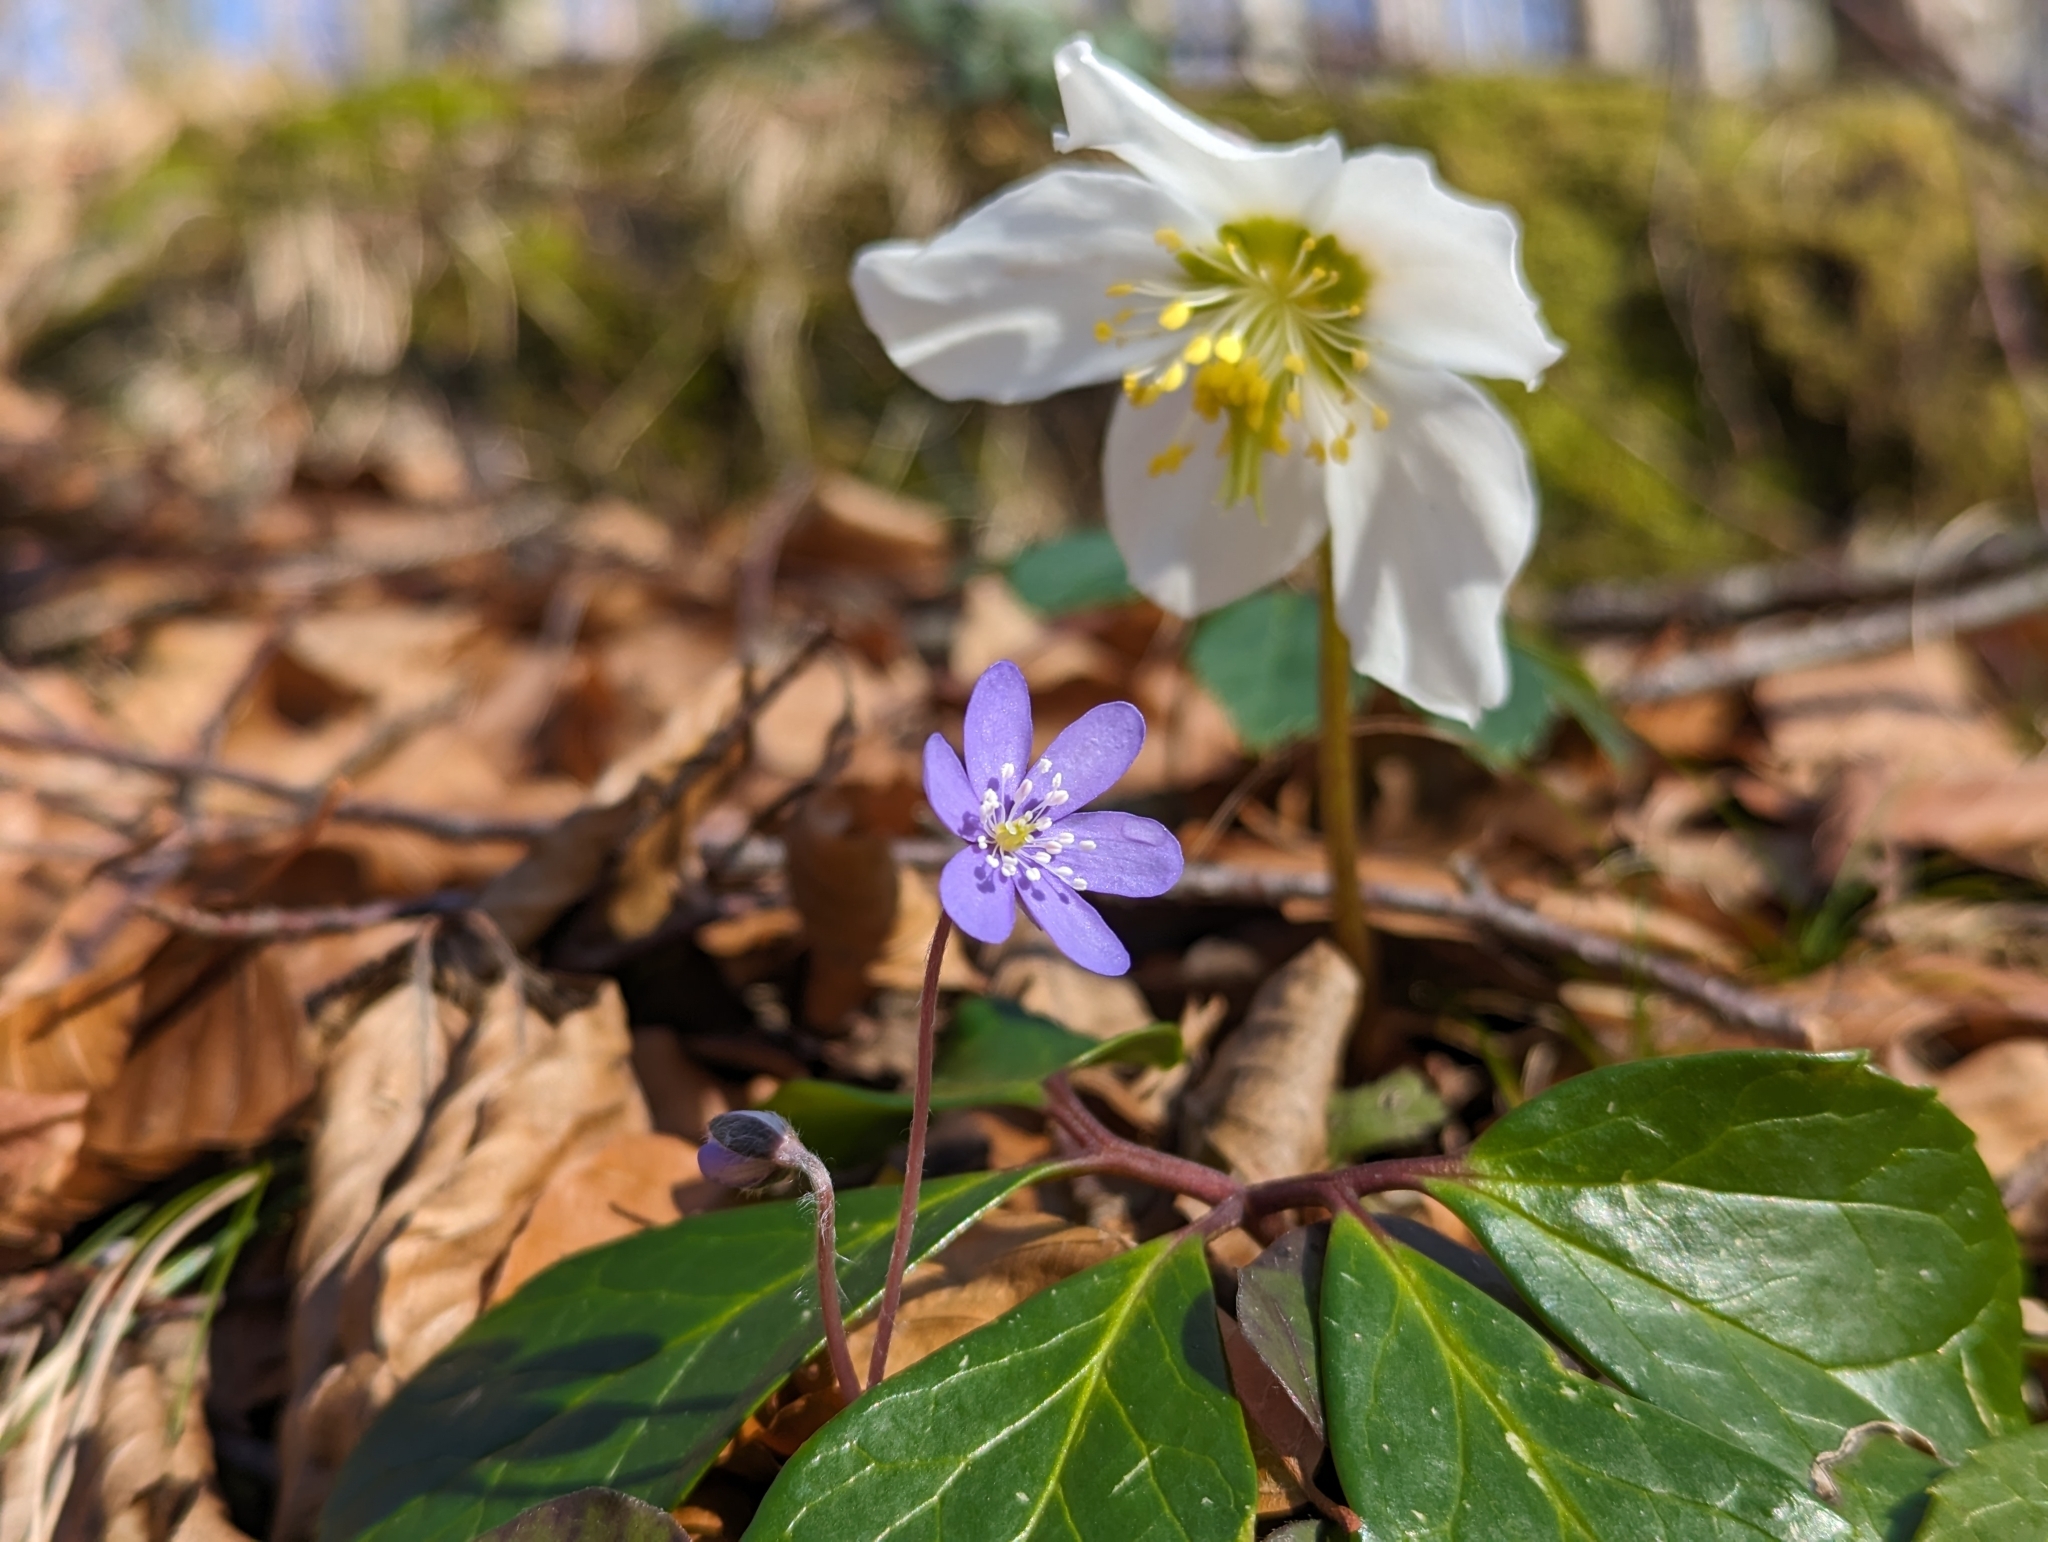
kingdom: Plantae
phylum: Tracheophyta
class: Magnoliopsida
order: Ranunculales
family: Ranunculaceae
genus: Hepatica
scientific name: Hepatica nobilis
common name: Liverleaf
